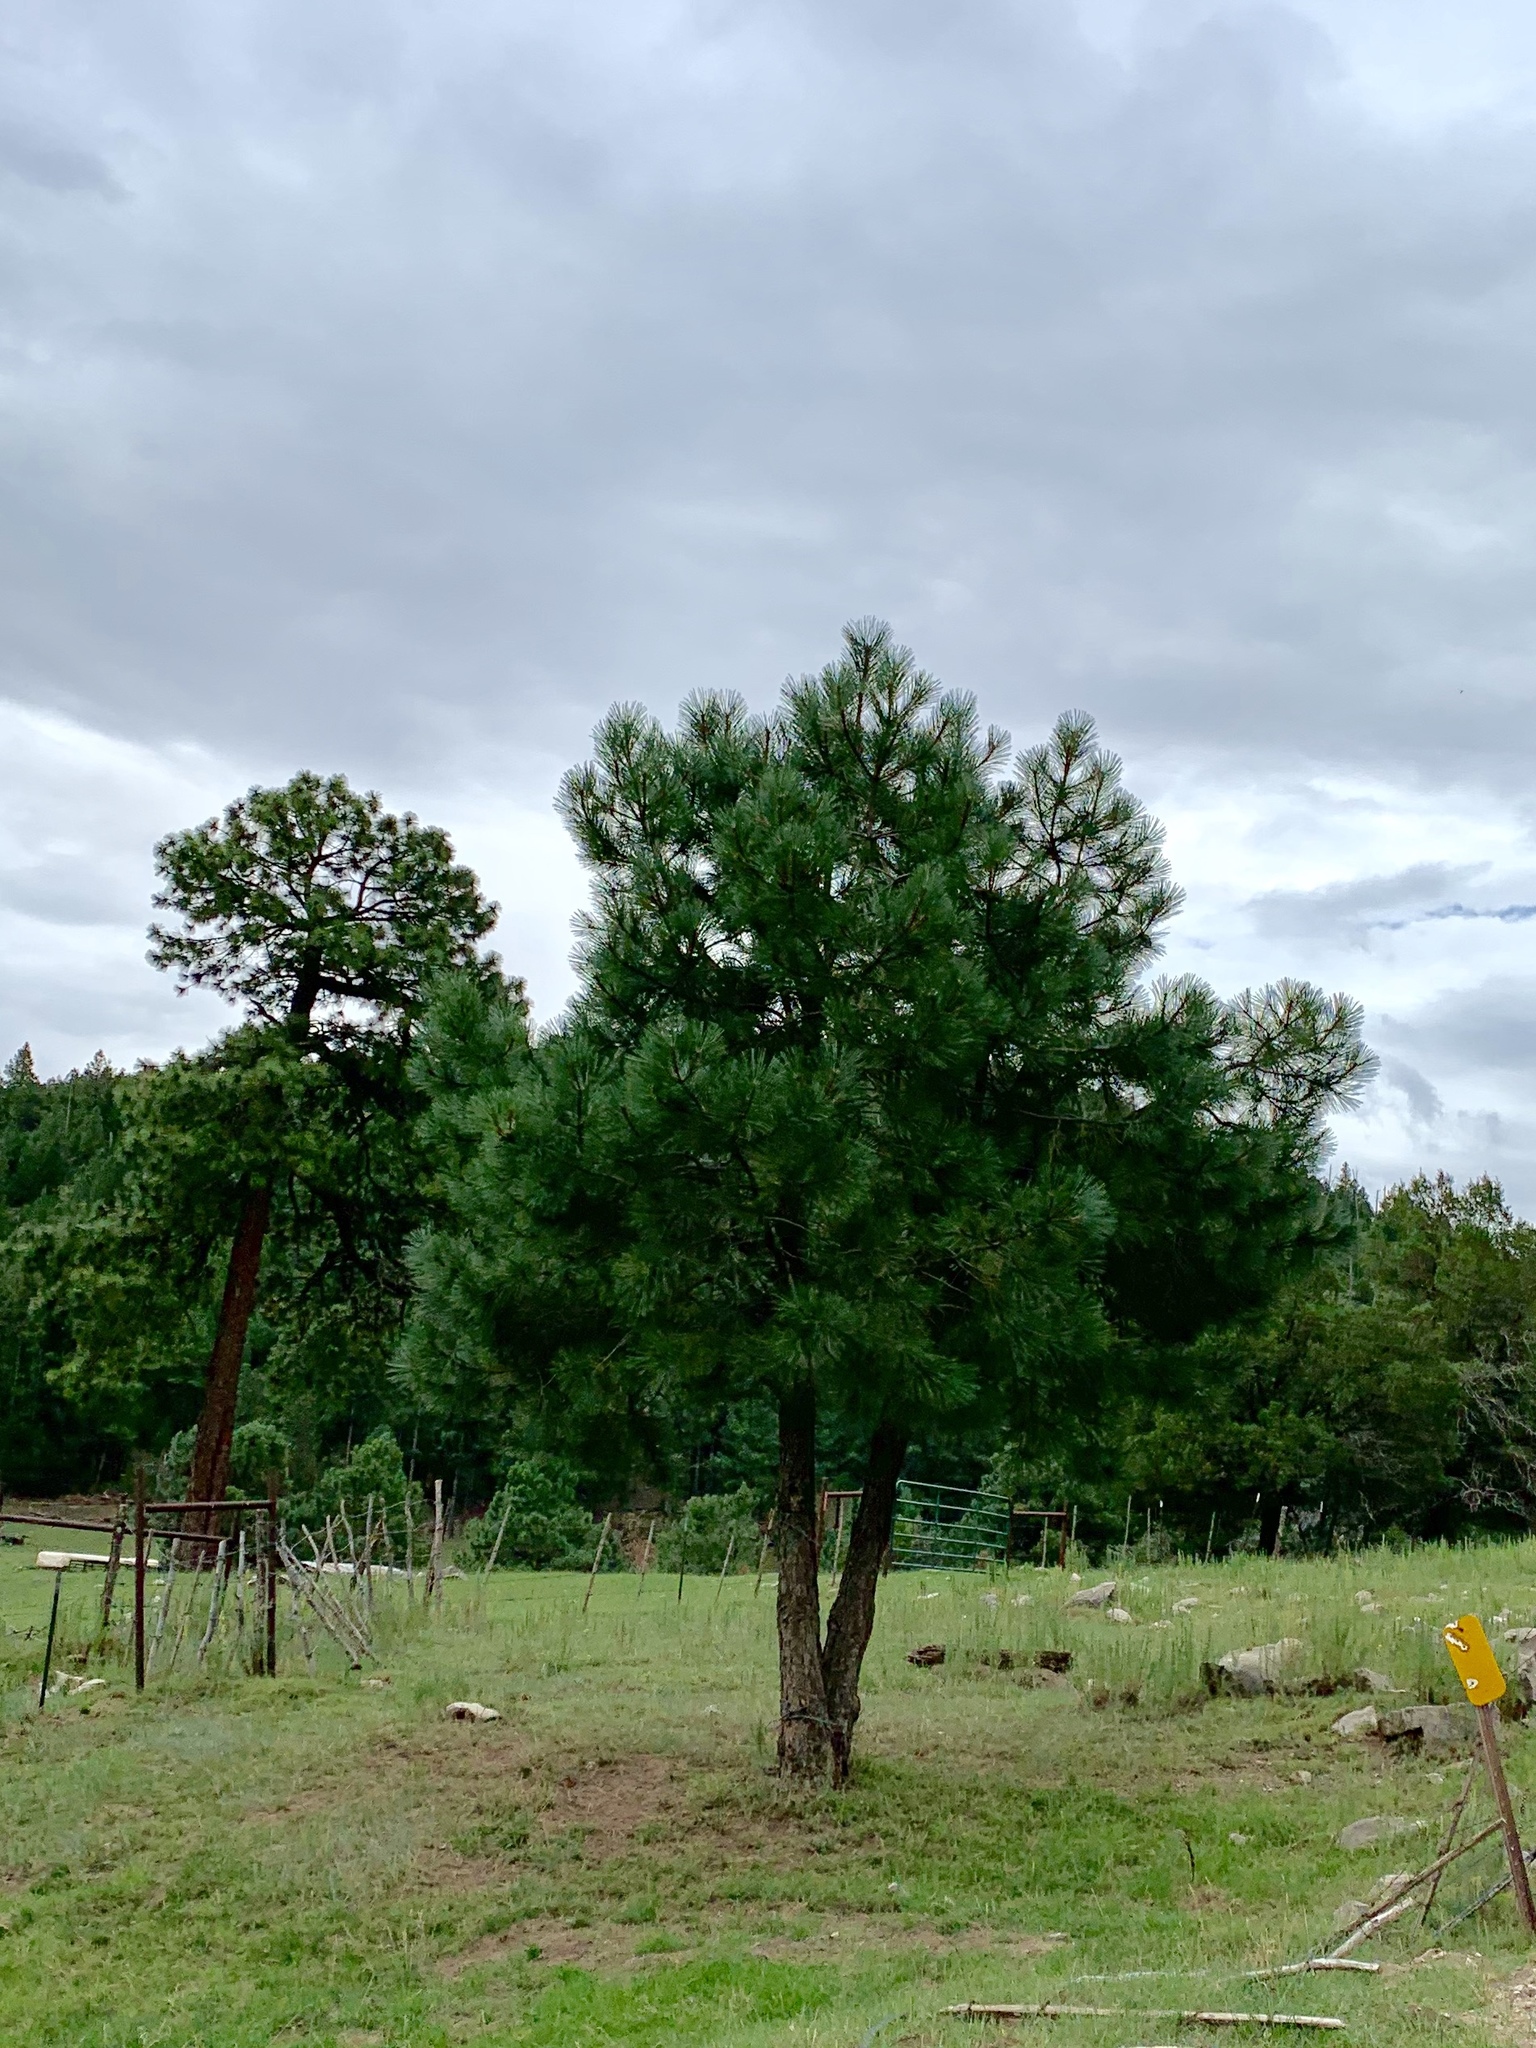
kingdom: Plantae
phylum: Tracheophyta
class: Pinopsida
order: Pinales
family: Pinaceae
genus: Pinus
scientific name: Pinus ponderosa
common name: Western yellow-pine
